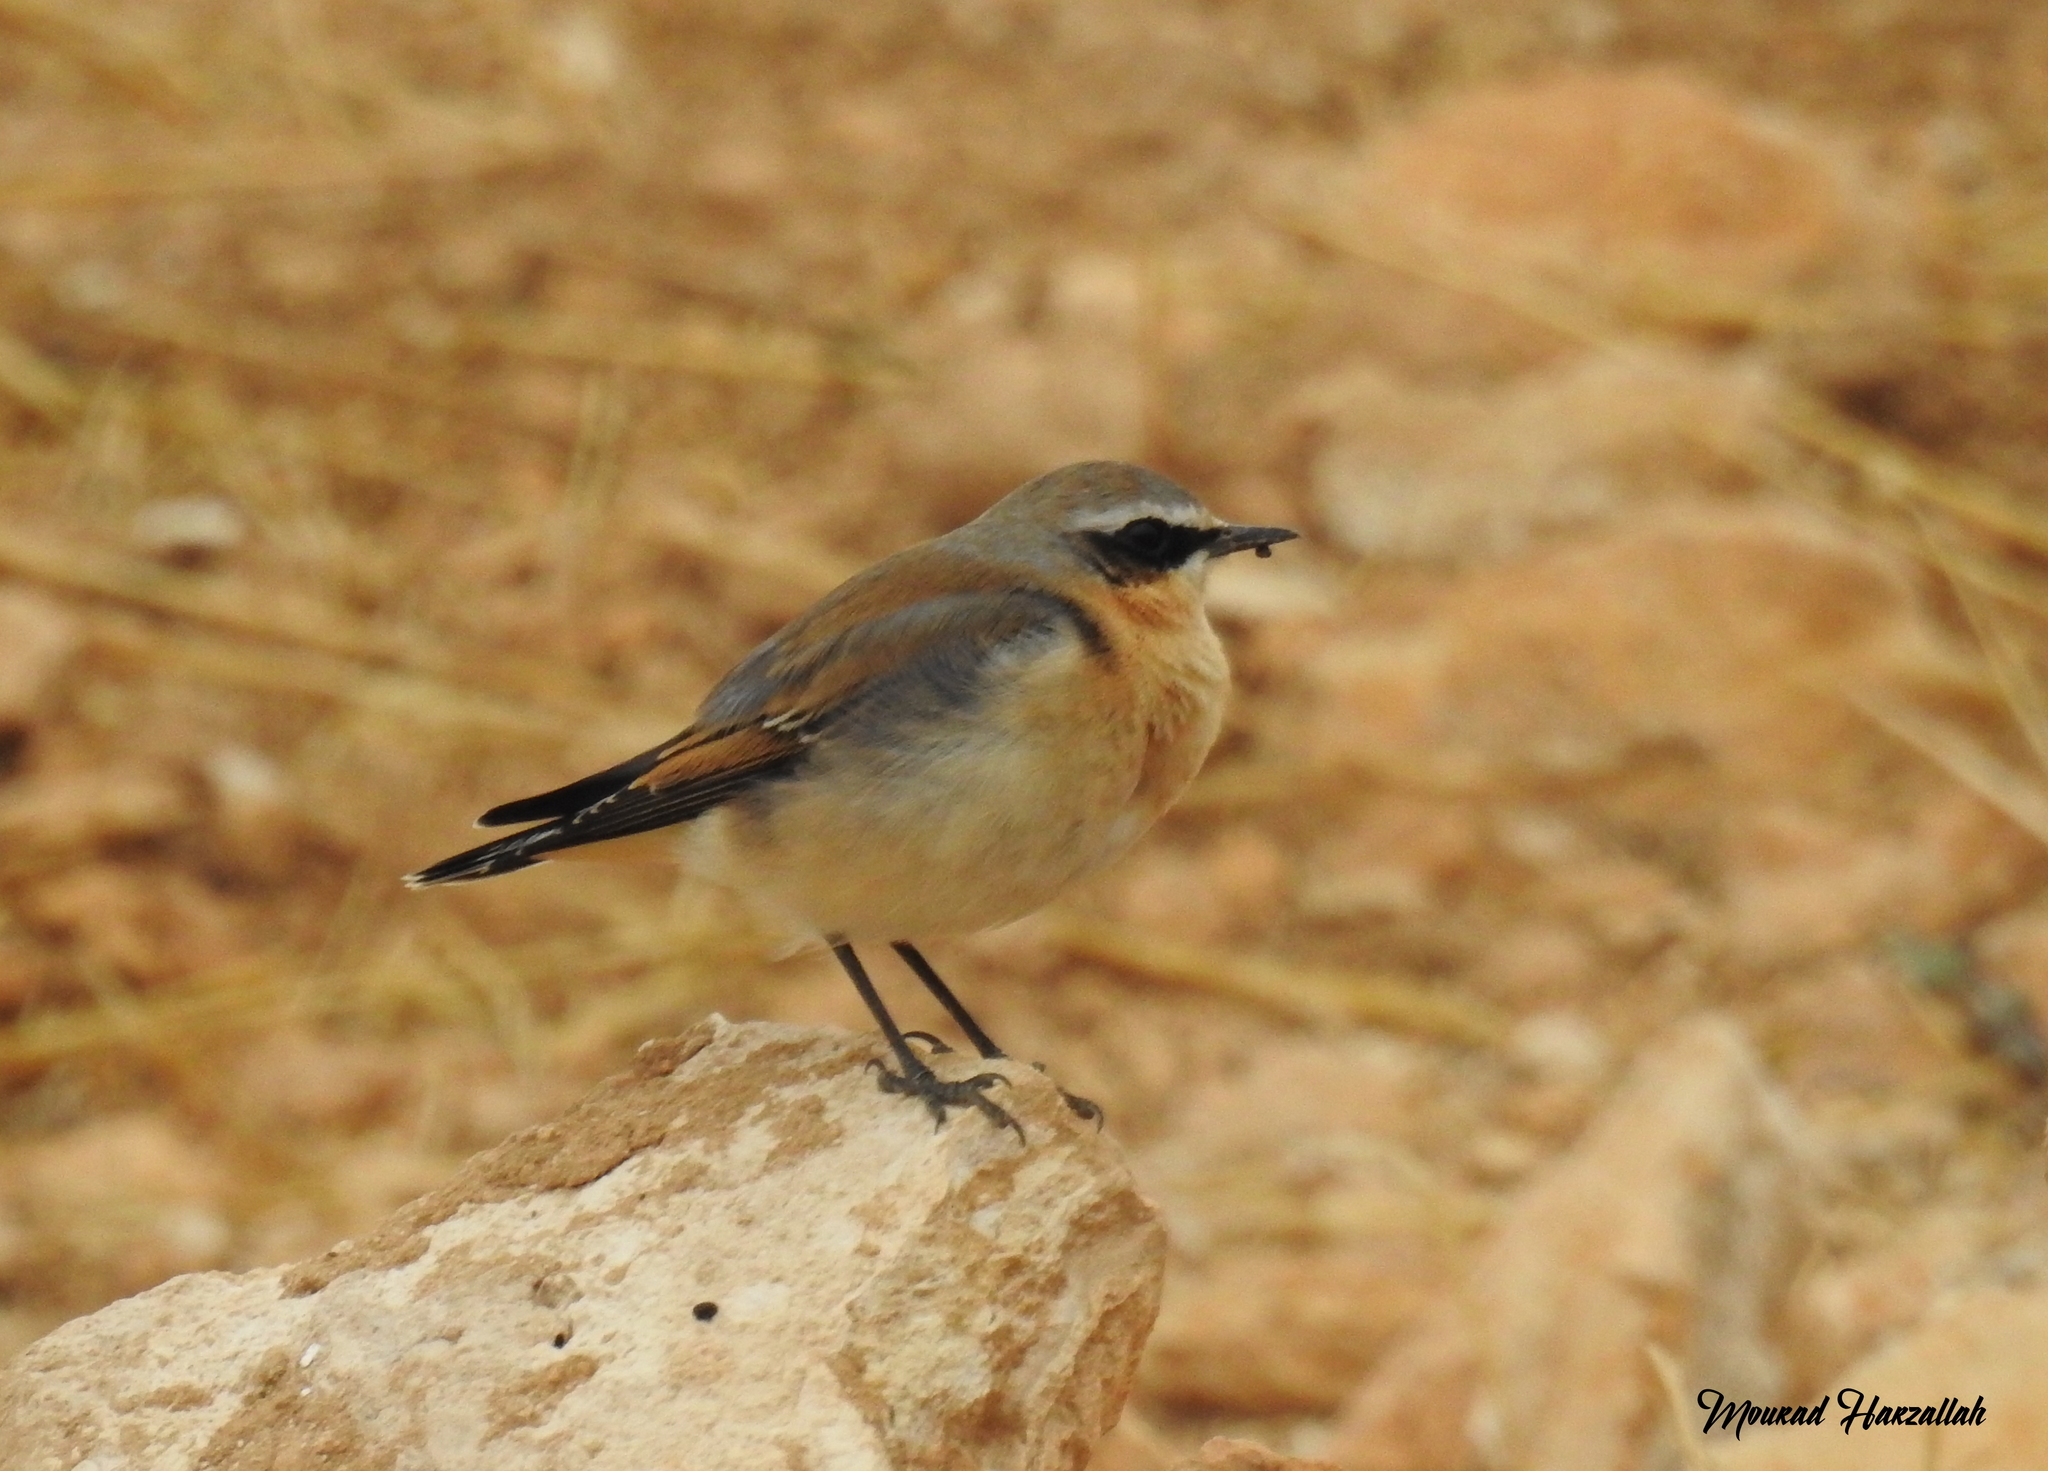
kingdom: Animalia
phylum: Chordata
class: Aves
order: Passeriformes
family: Muscicapidae
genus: Oenanthe
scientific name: Oenanthe oenanthe
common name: Northern wheatear
